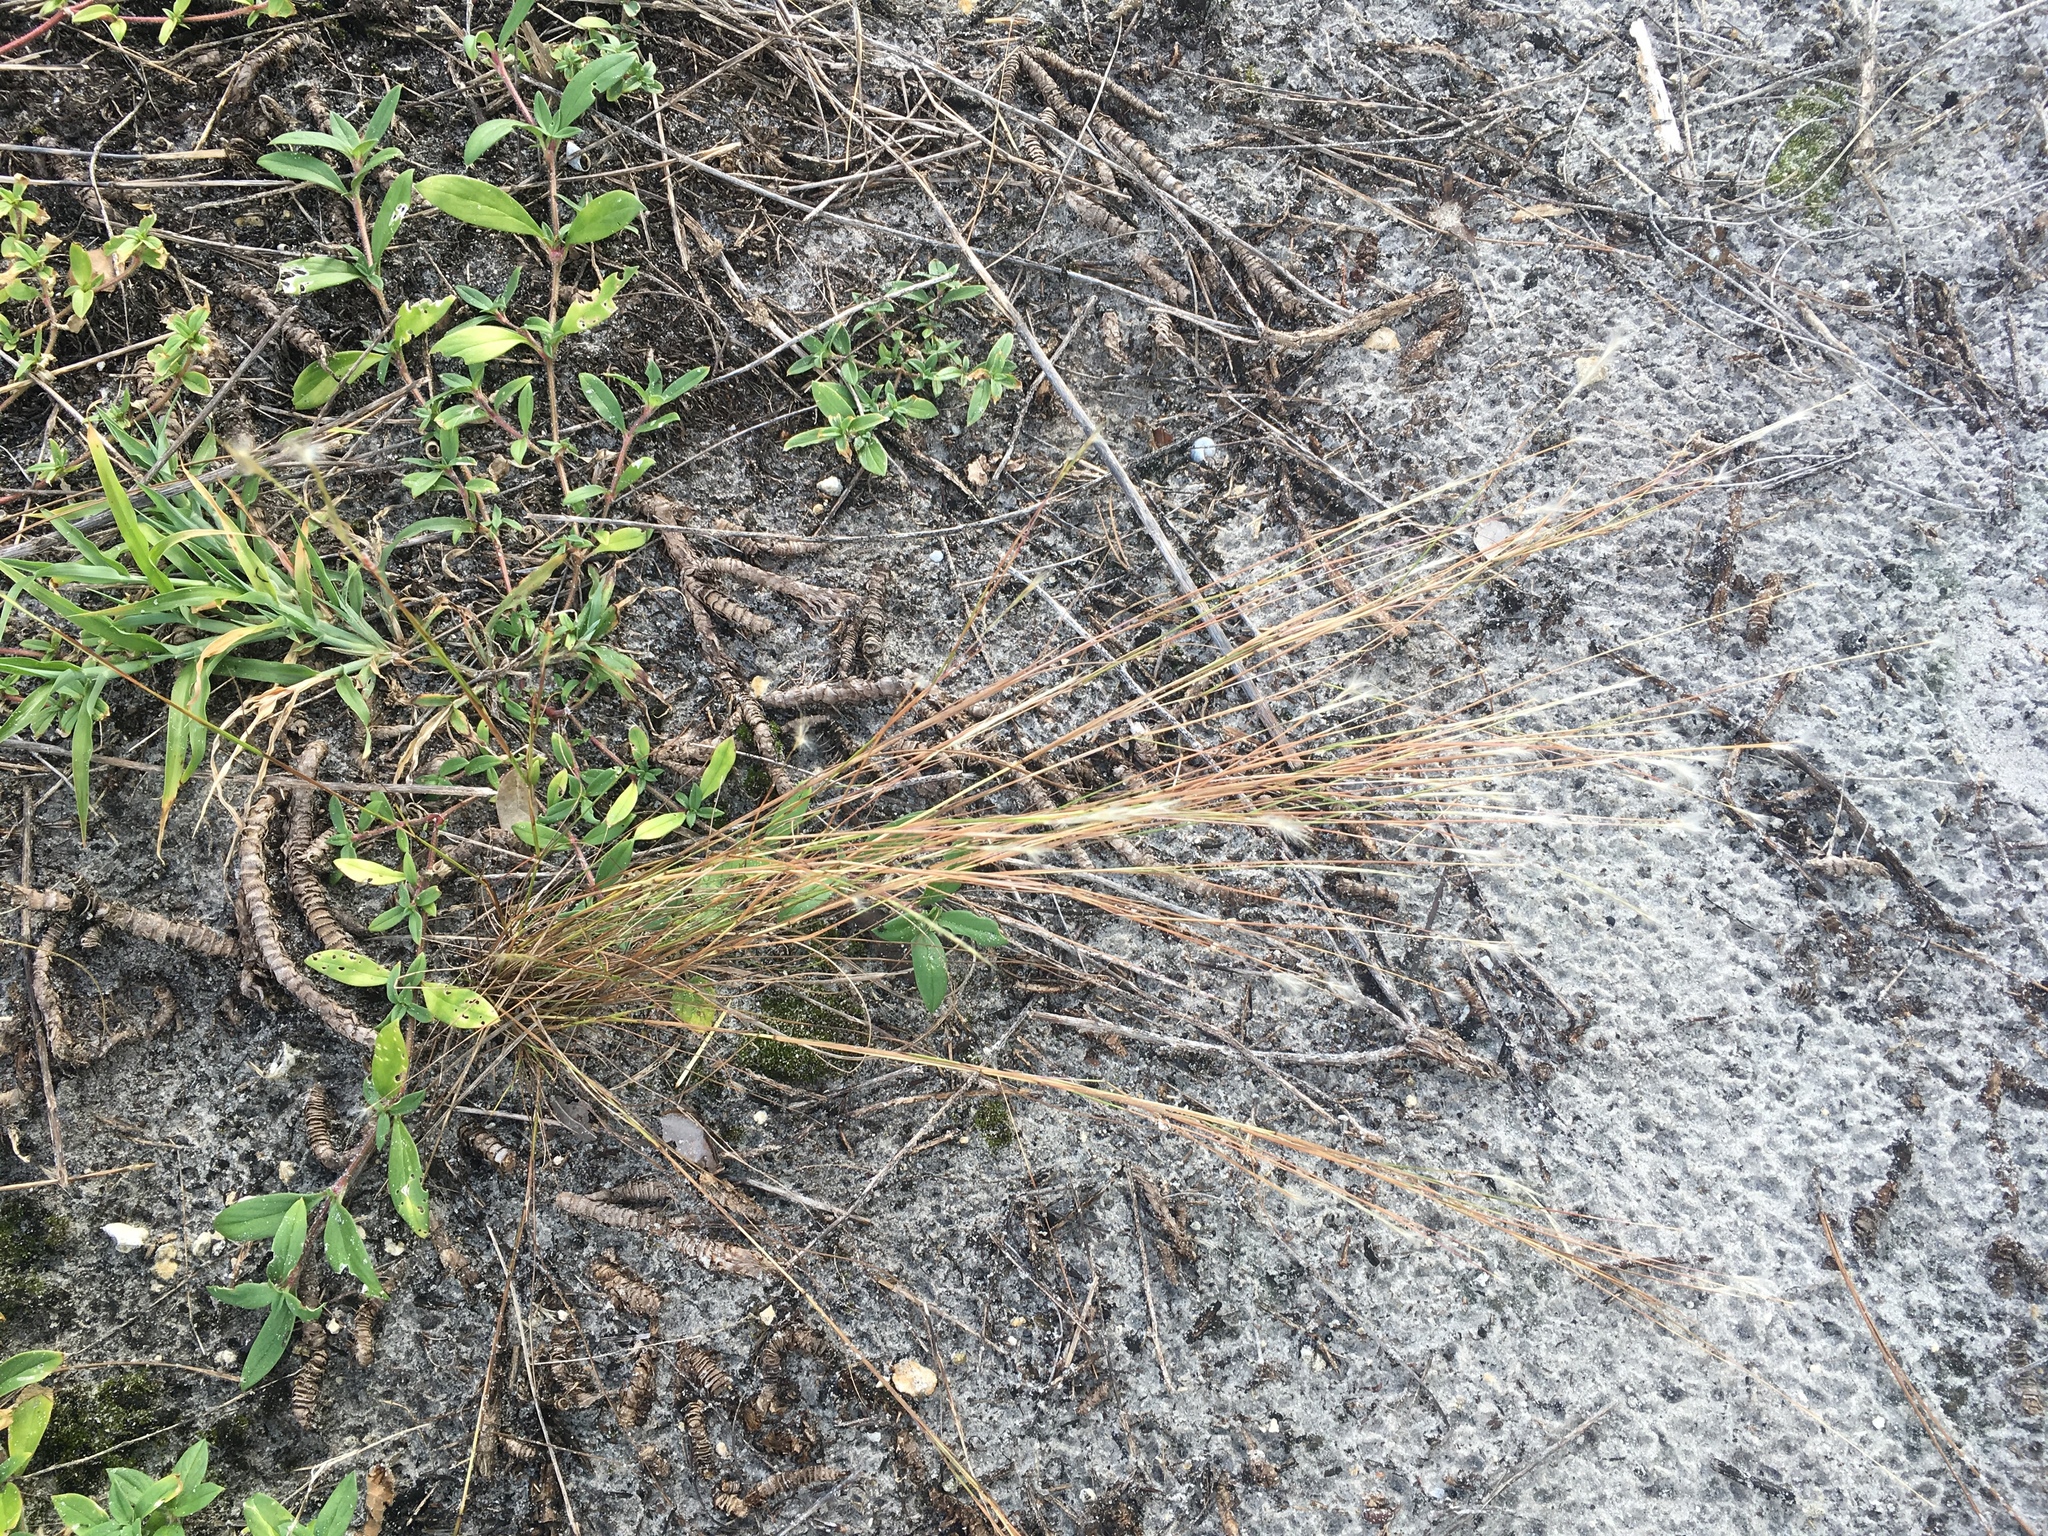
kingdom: Plantae
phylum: Tracheophyta
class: Liliopsida
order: Poales
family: Poaceae
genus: Schizachyrium
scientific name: Schizachyrium gracile
